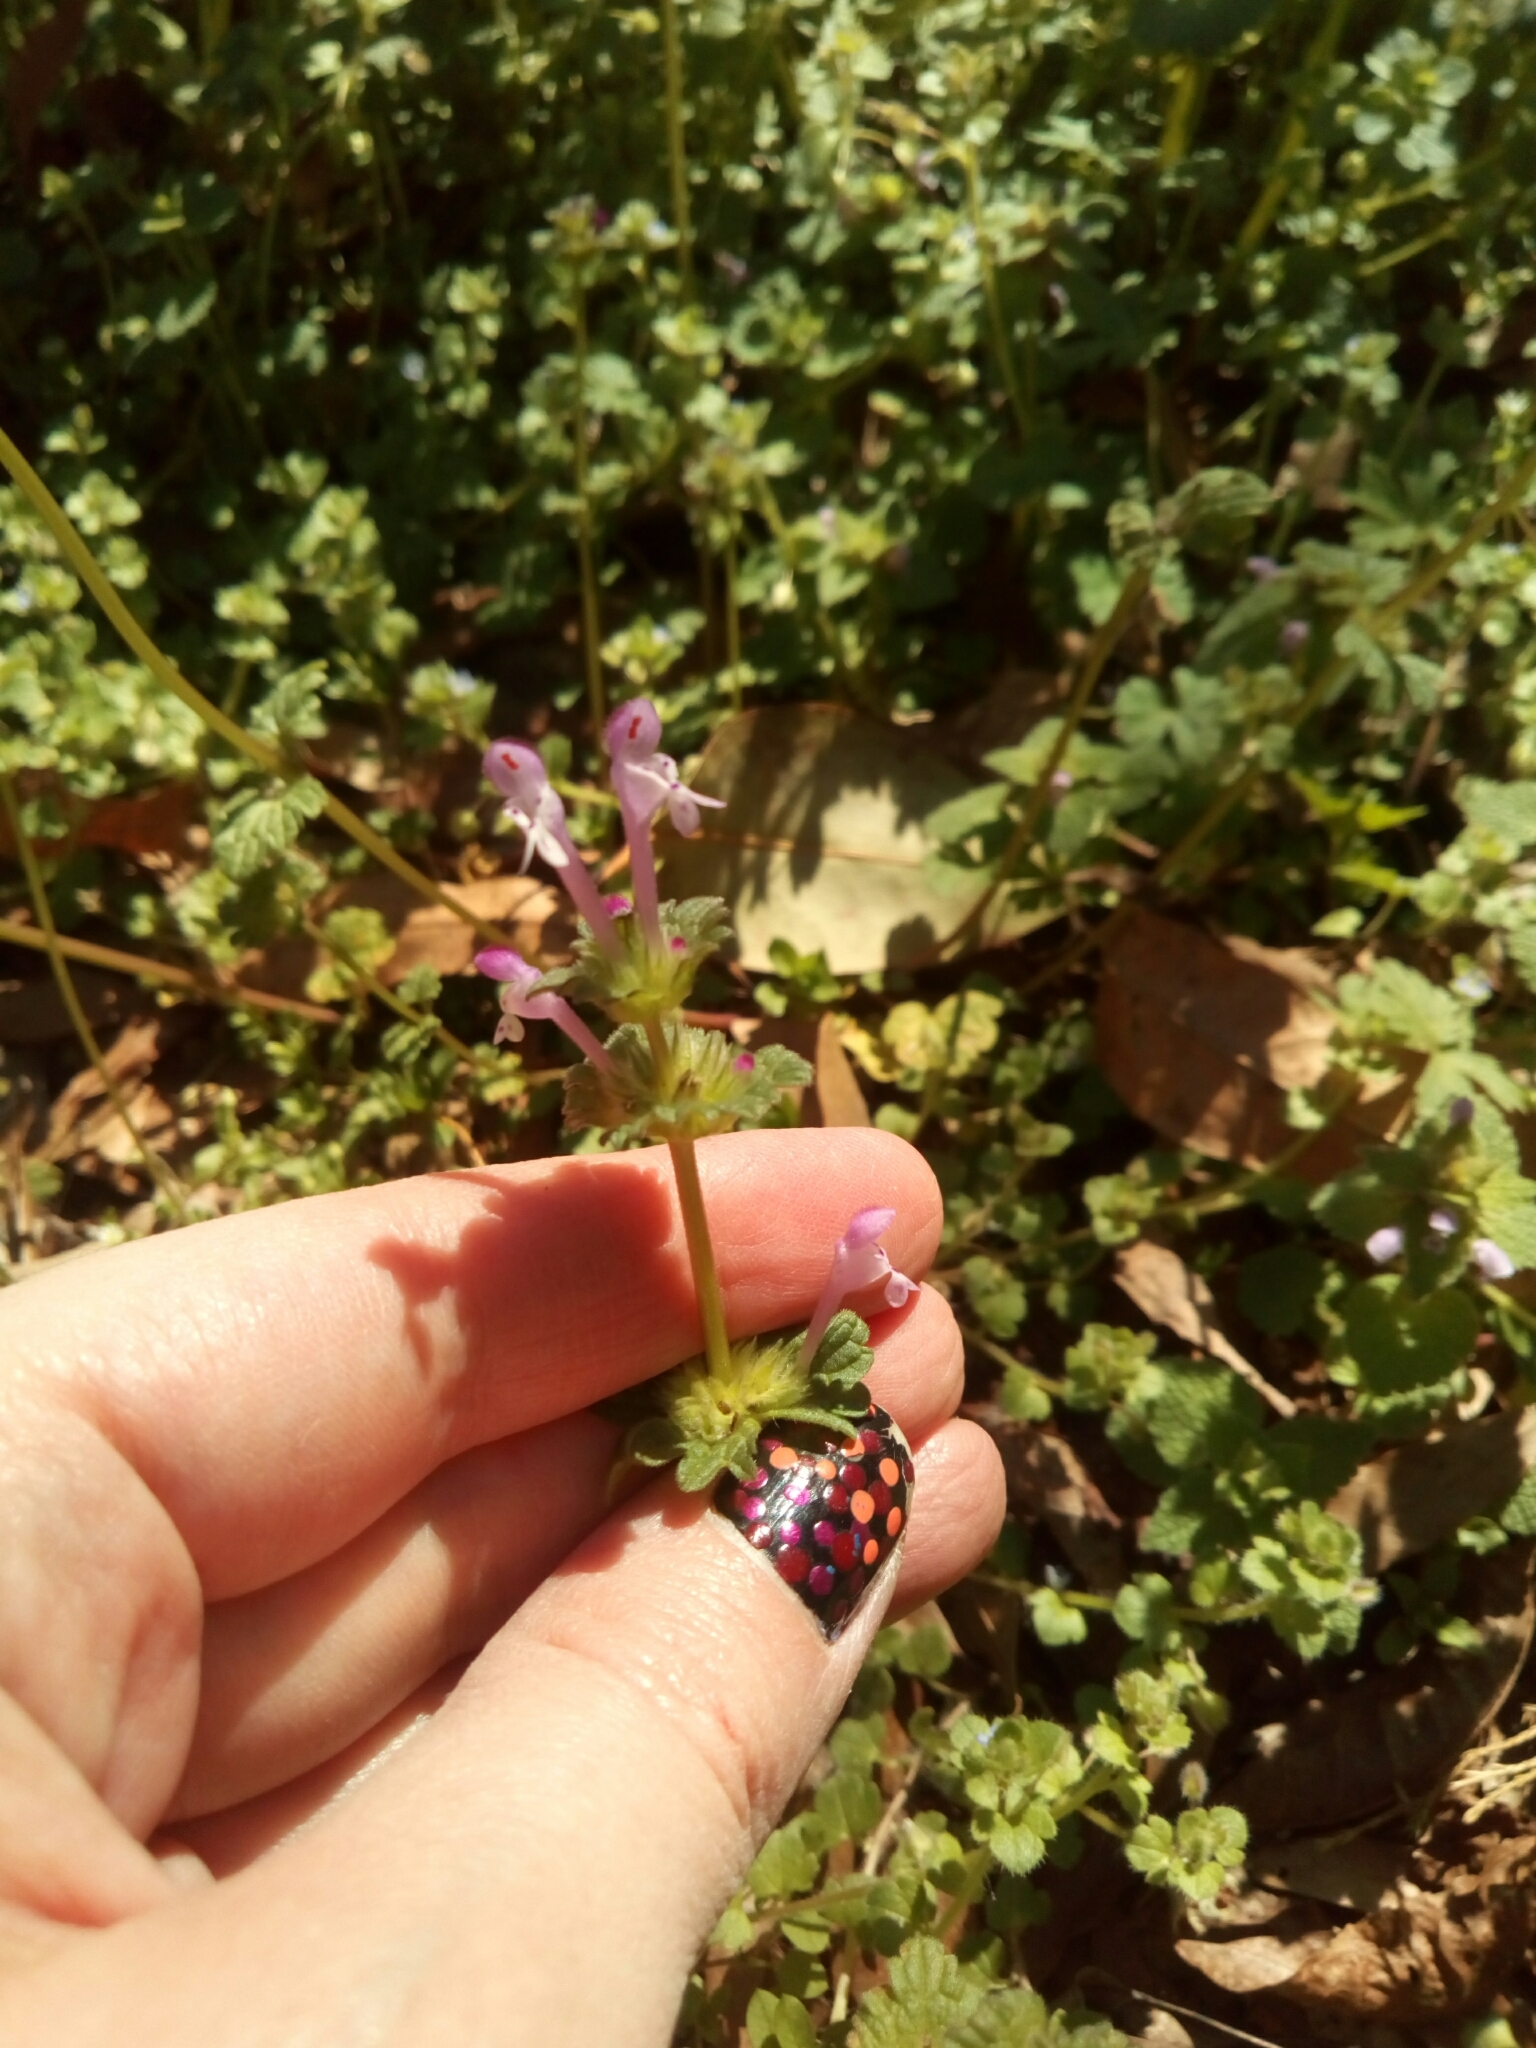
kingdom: Plantae
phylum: Tracheophyta
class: Magnoliopsida
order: Lamiales
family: Lamiaceae
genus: Lamium
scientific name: Lamium amplexicaule
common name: Henbit dead-nettle
